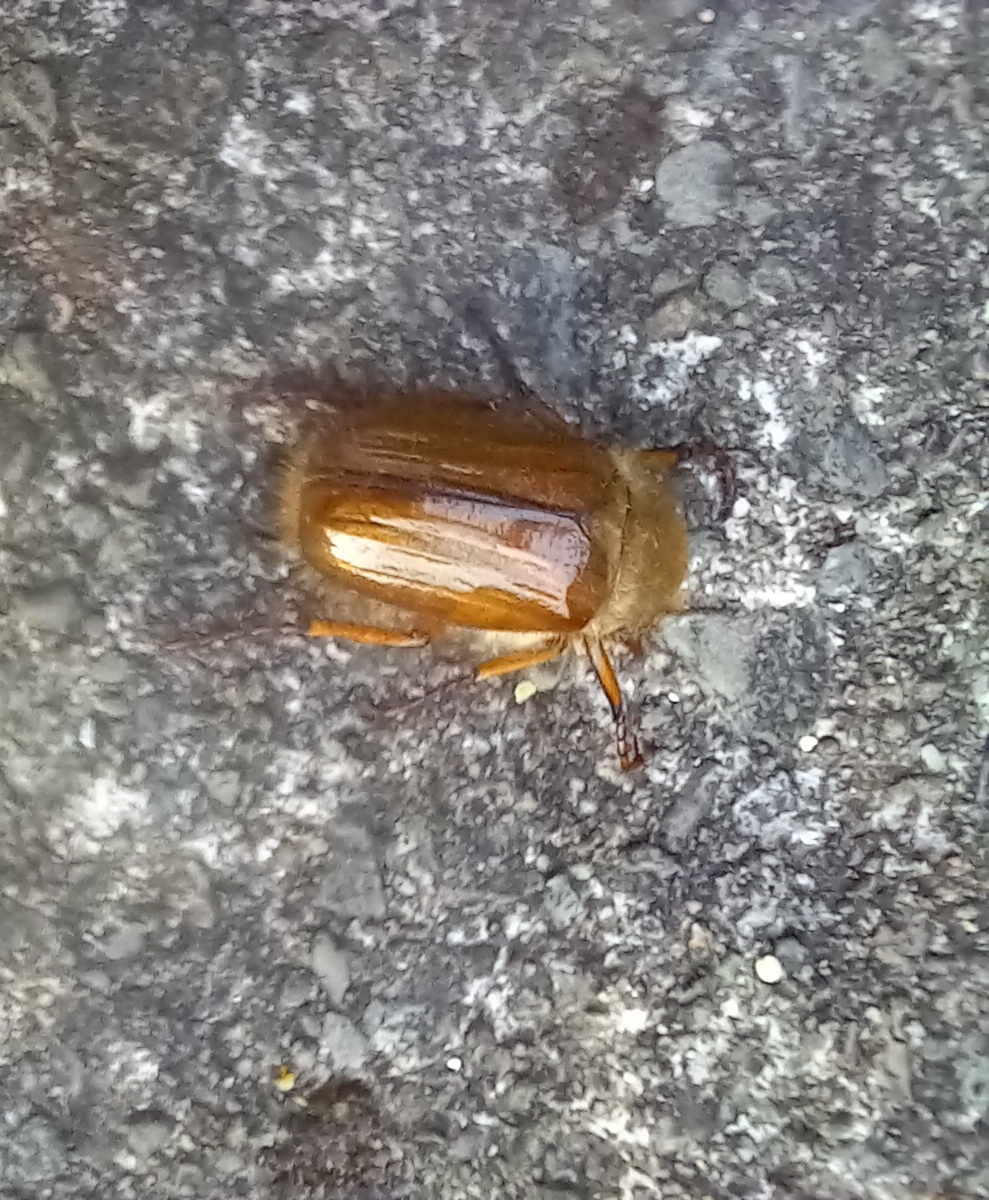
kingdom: Animalia
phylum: Arthropoda
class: Insecta
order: Coleoptera
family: Scarabaeidae
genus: Amphimallon
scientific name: Amphimallon solstitiale
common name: Summer chafer
